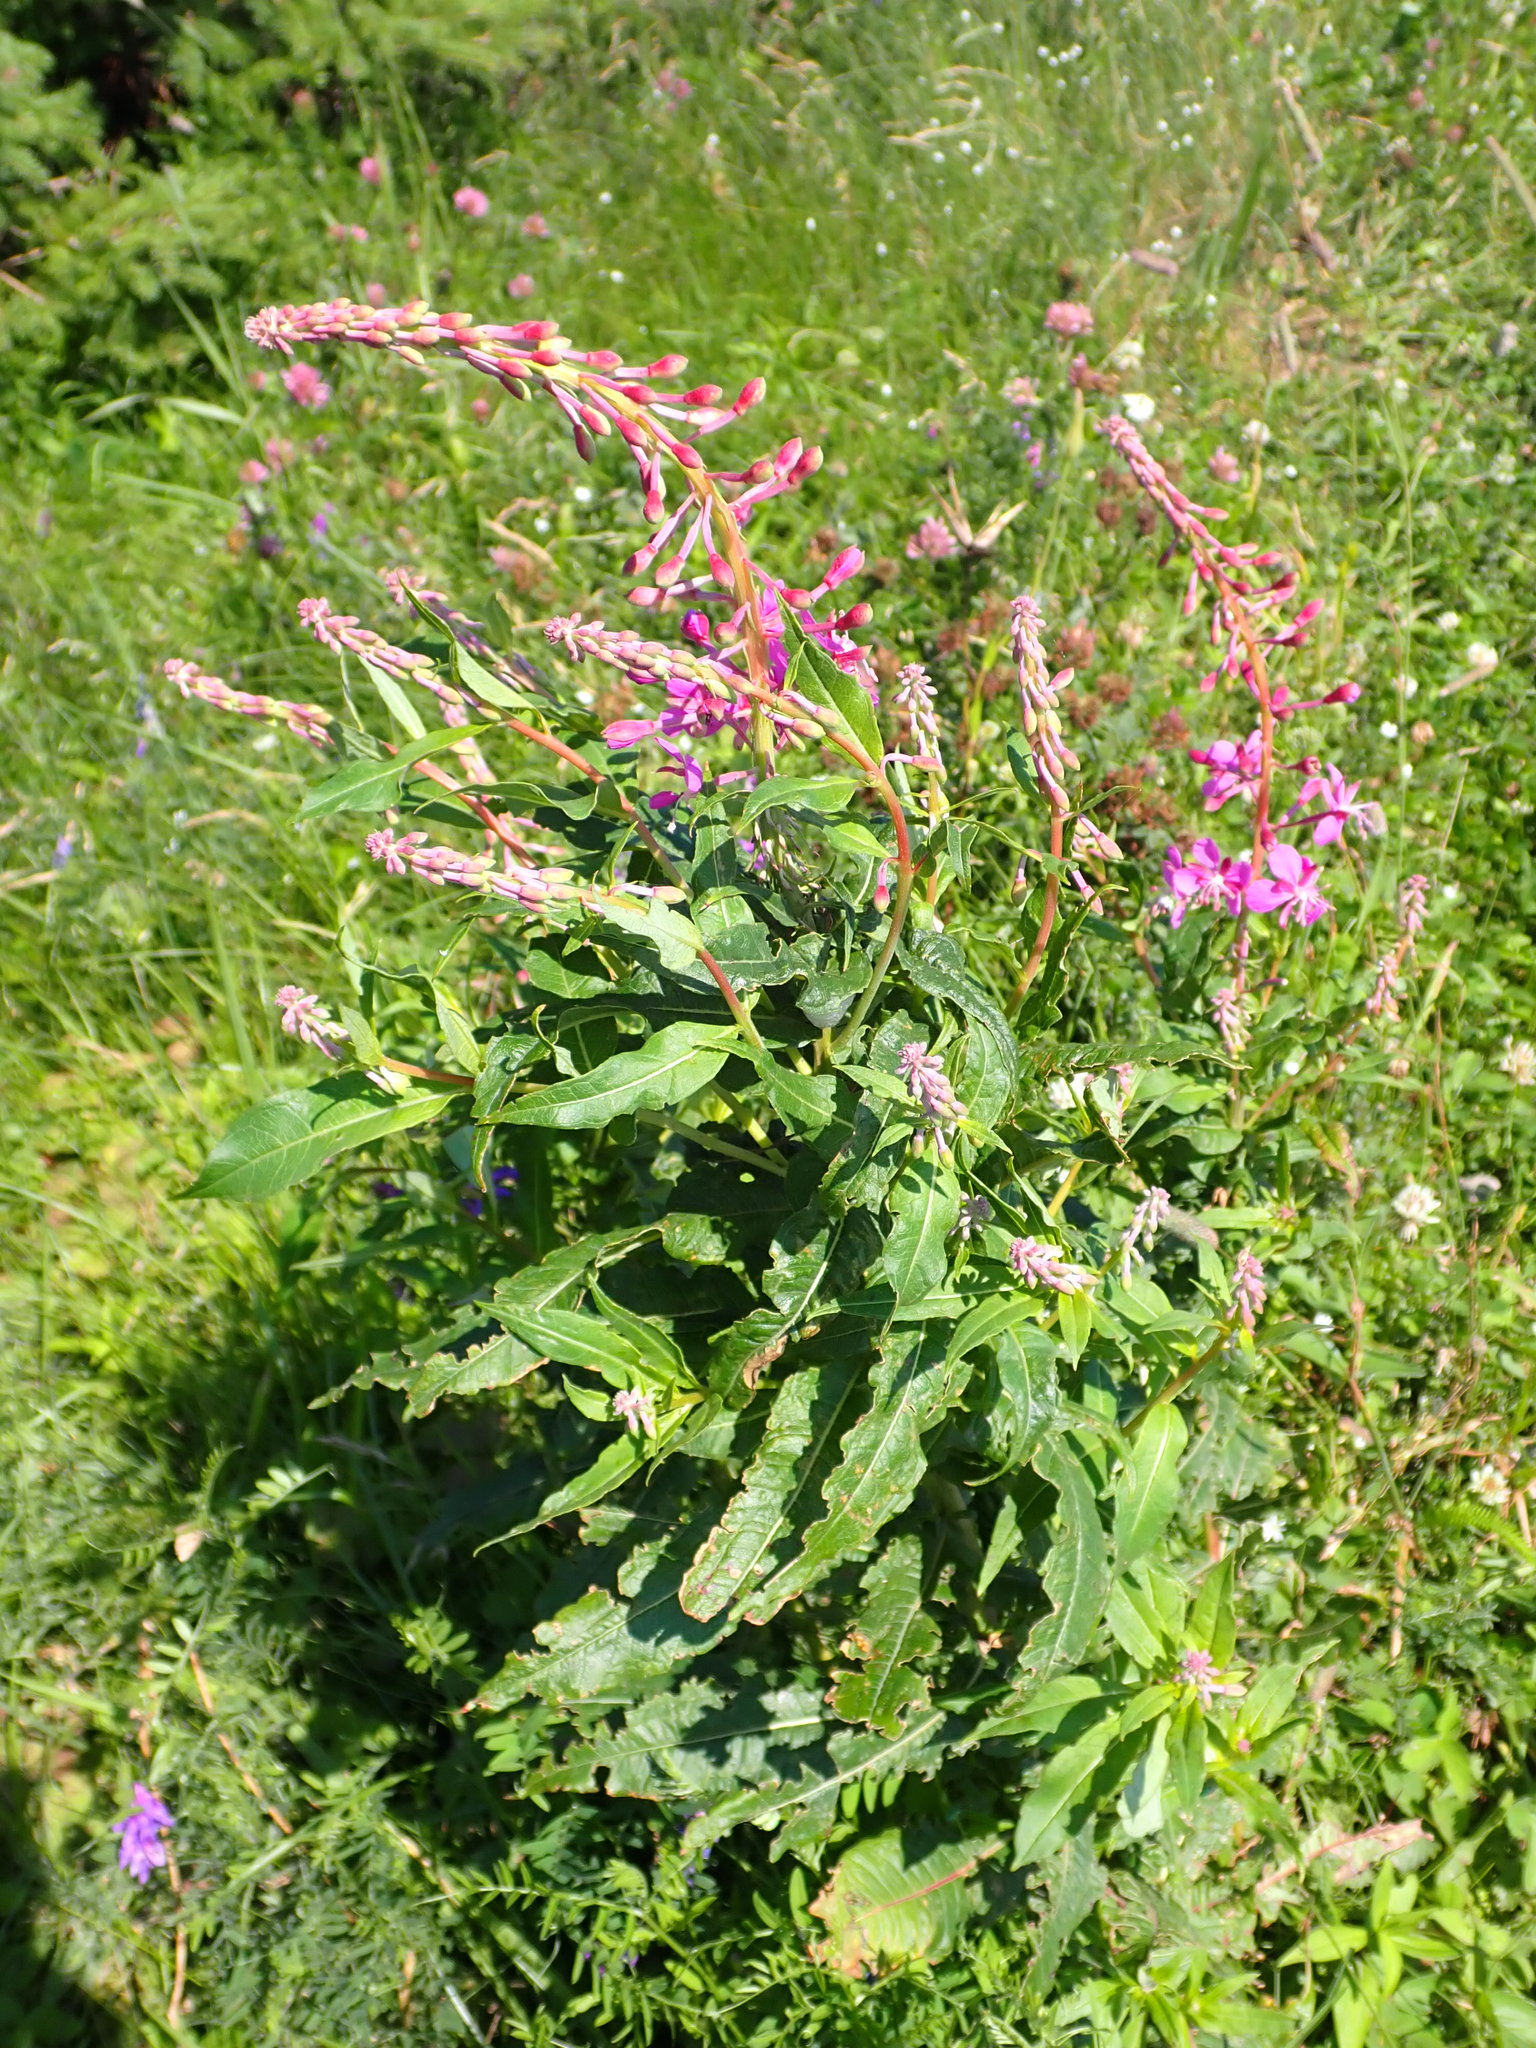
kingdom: Plantae
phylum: Tracheophyta
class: Magnoliopsida
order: Myrtales
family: Onagraceae
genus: Chamaenerion
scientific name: Chamaenerion angustifolium
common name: Fireweed
